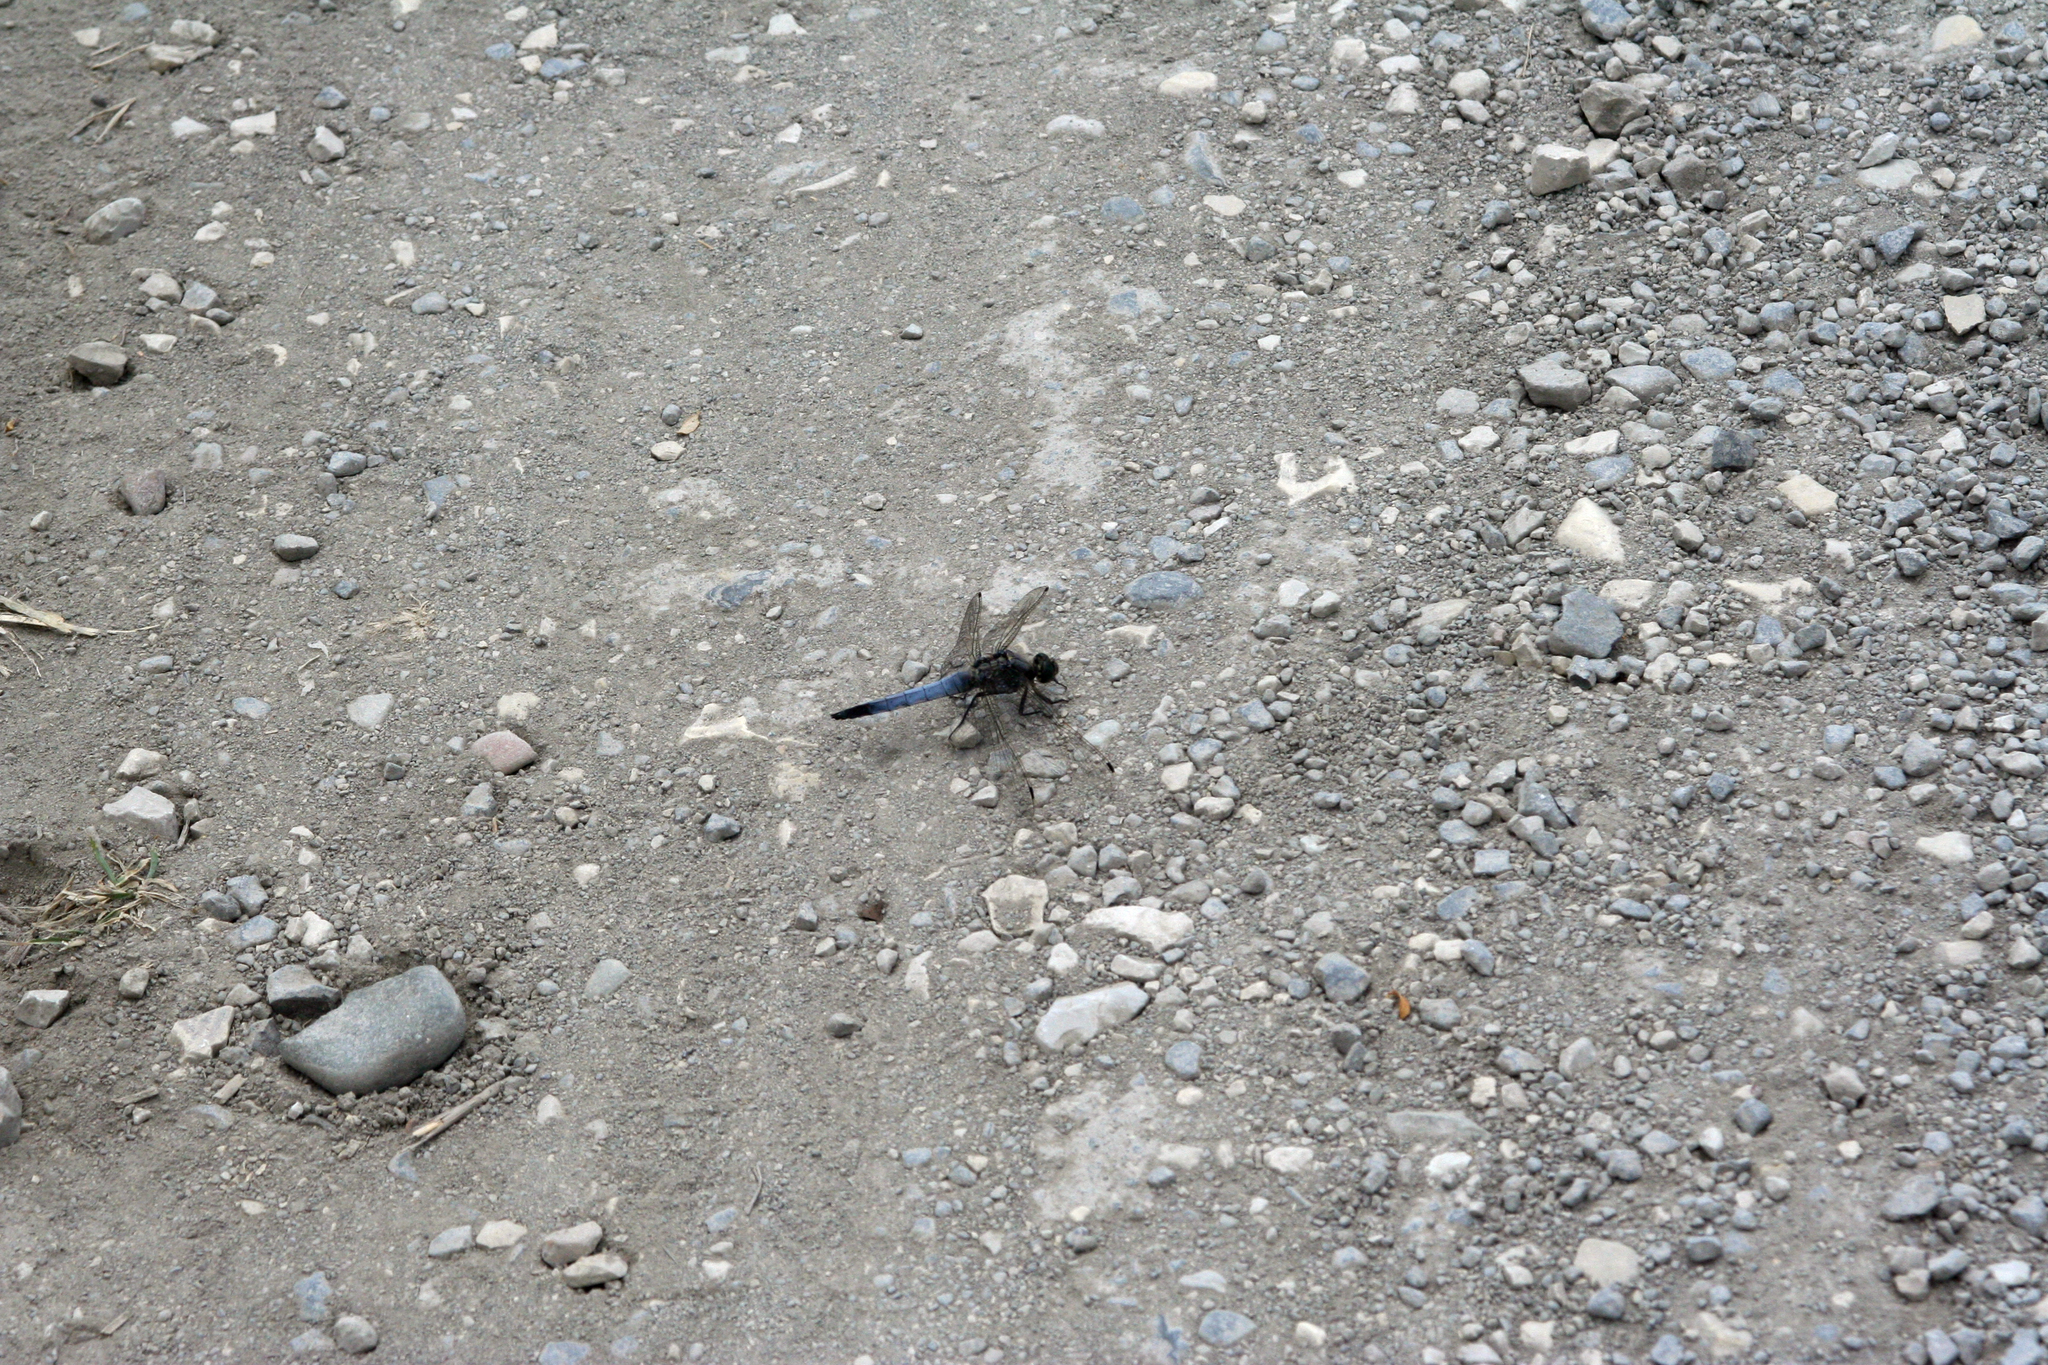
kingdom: Animalia
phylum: Arthropoda
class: Insecta
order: Odonata
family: Libellulidae
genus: Orthetrum
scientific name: Orthetrum cancellatum
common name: Black-tailed skimmer
